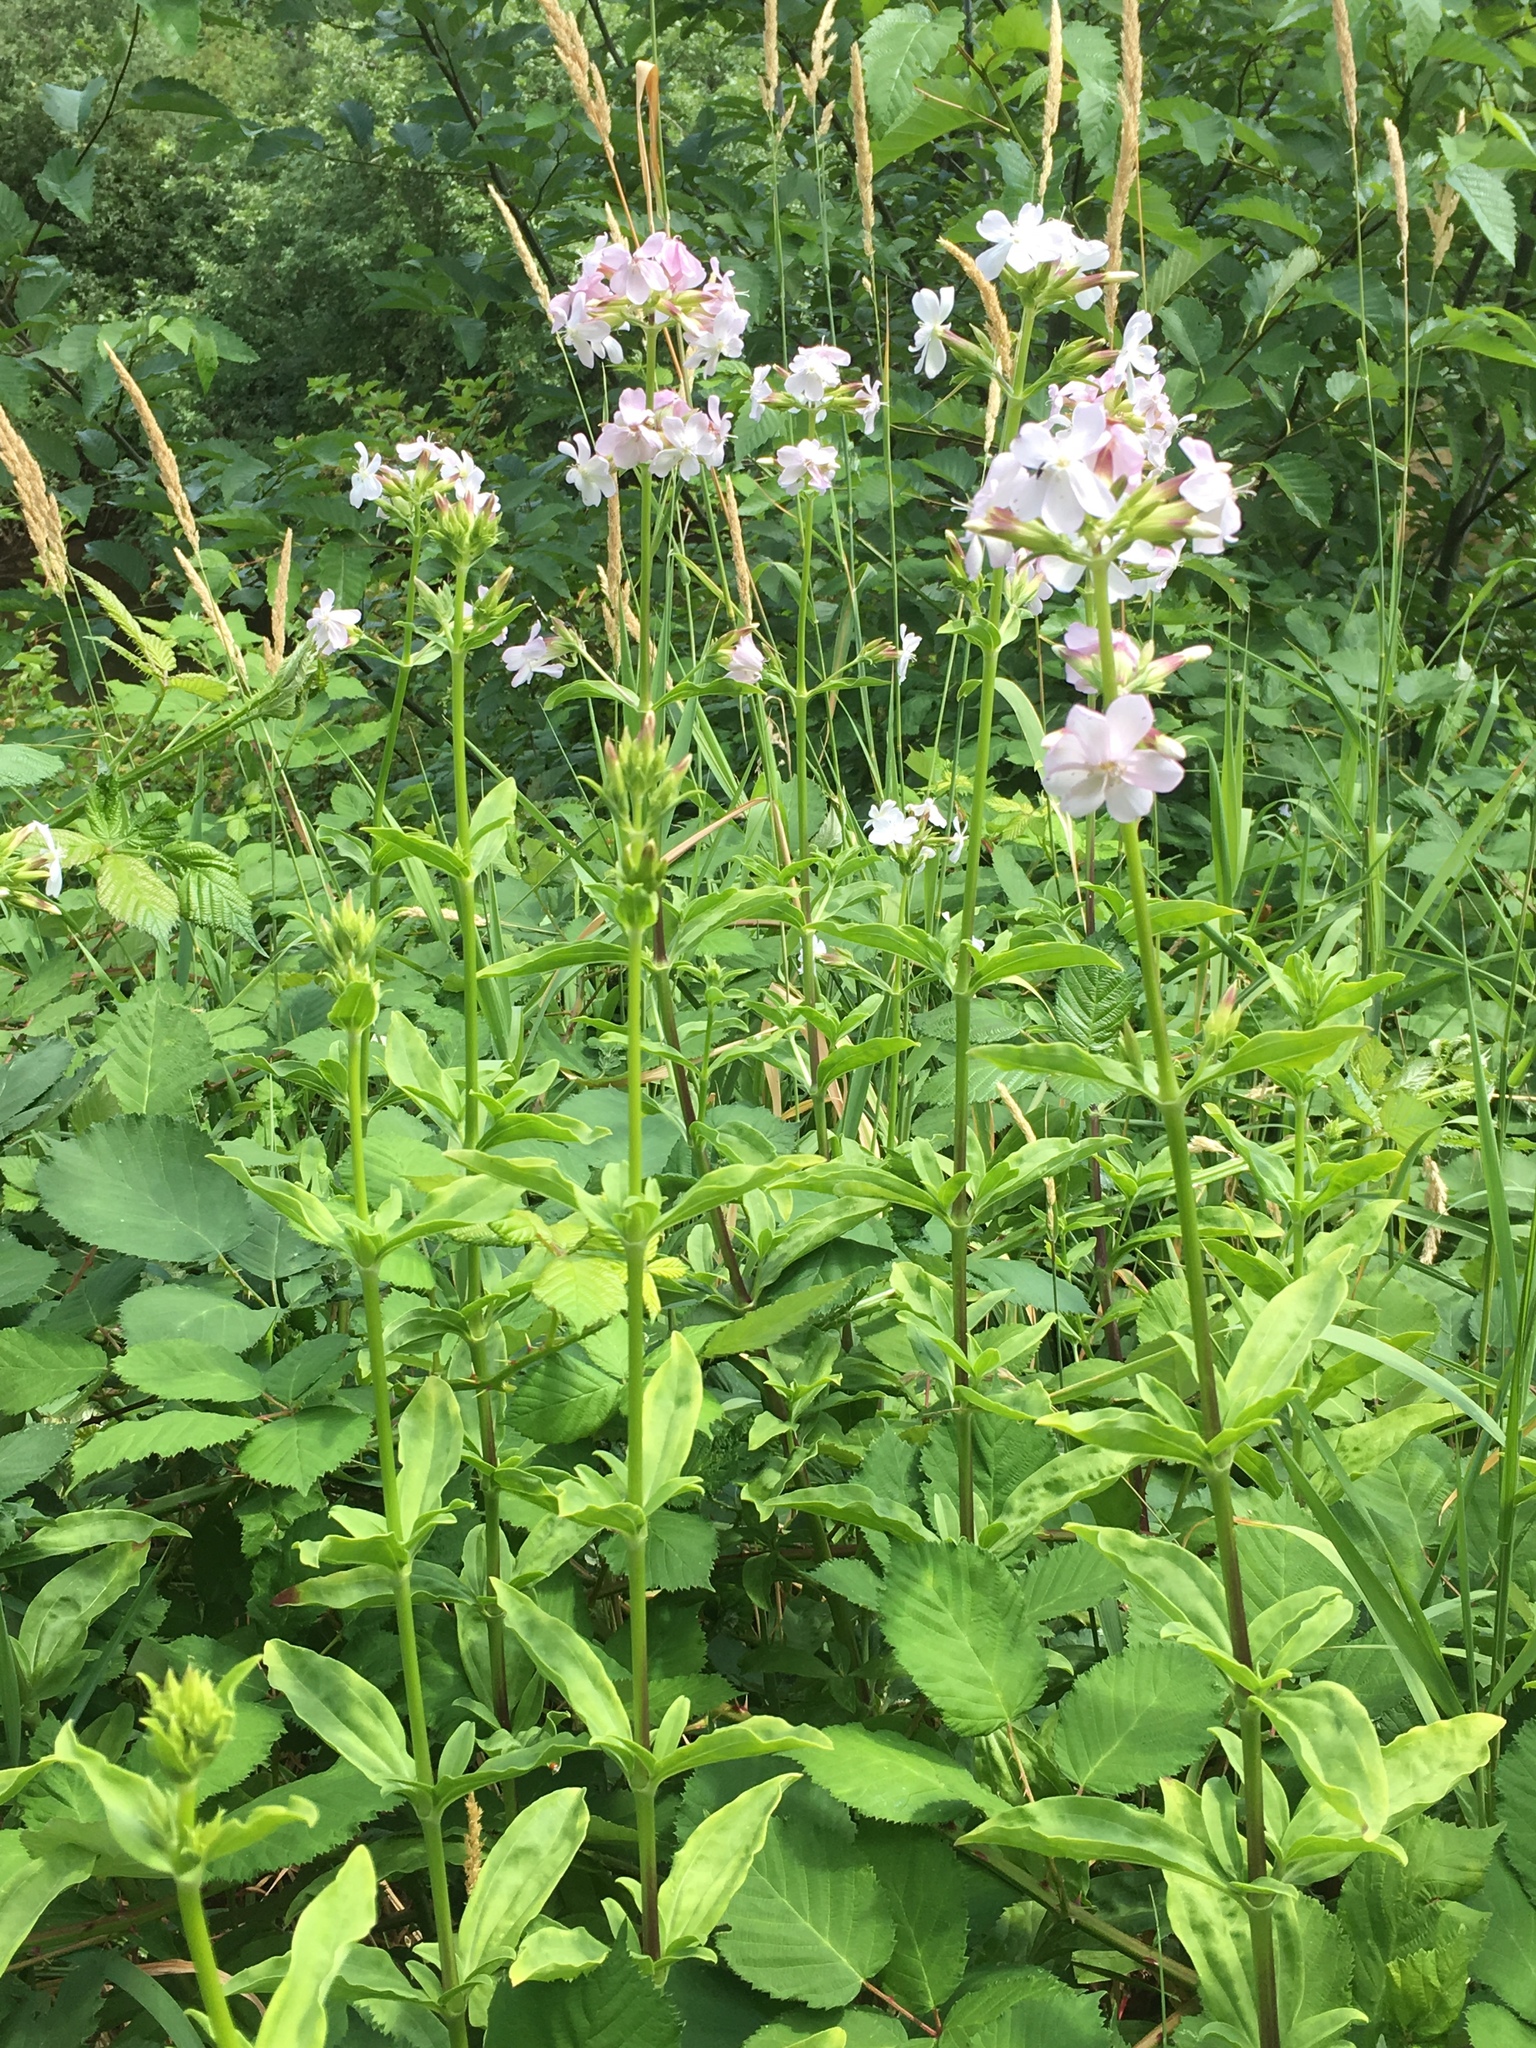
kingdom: Plantae
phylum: Tracheophyta
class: Magnoliopsida
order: Caryophyllales
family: Caryophyllaceae
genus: Saponaria
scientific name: Saponaria officinalis
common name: Soapwort
